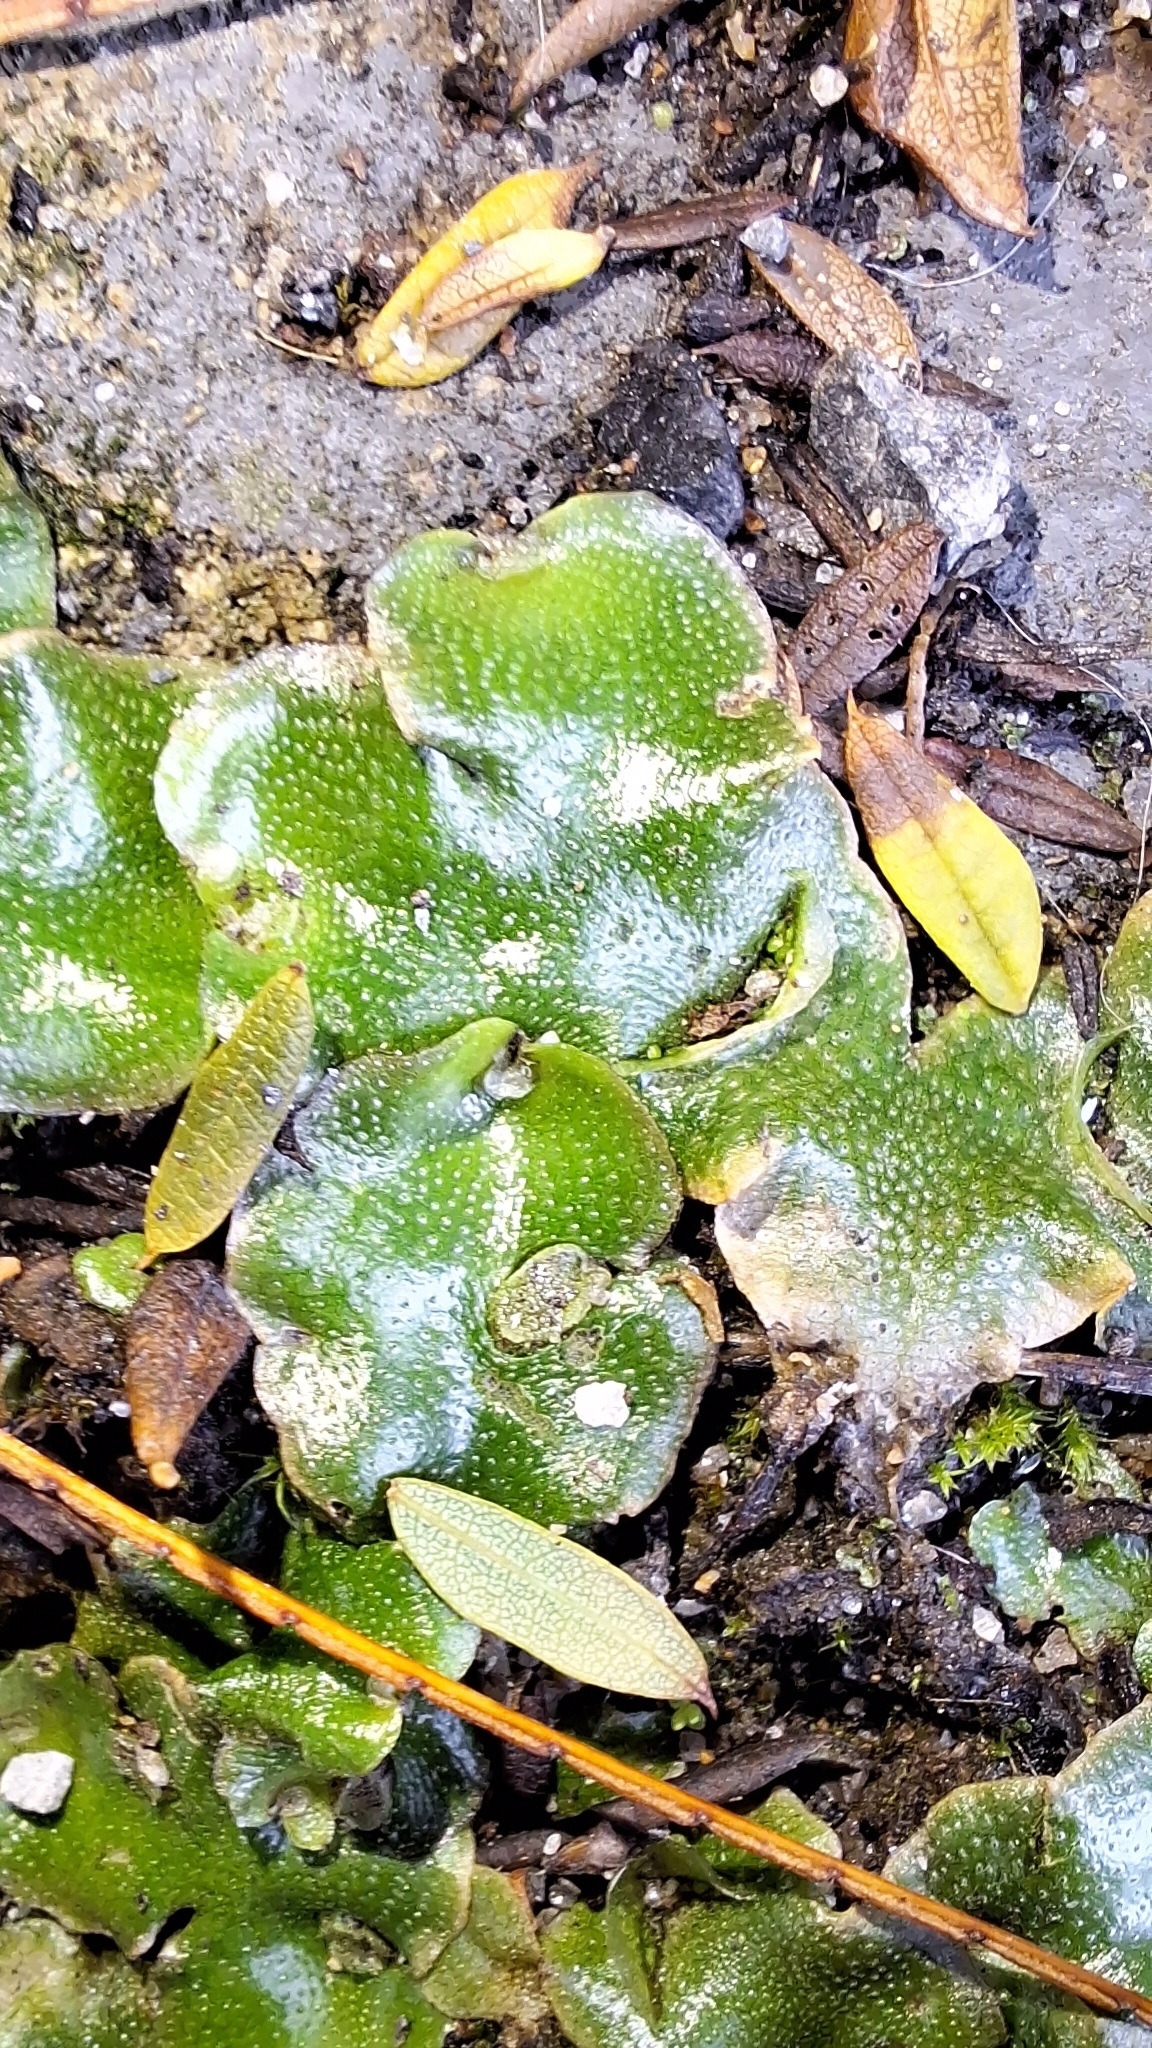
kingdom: Plantae
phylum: Marchantiophyta
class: Marchantiopsida
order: Lunulariales
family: Lunulariaceae
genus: Lunularia
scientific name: Lunularia cruciata
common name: Crescent-cup liverwort
